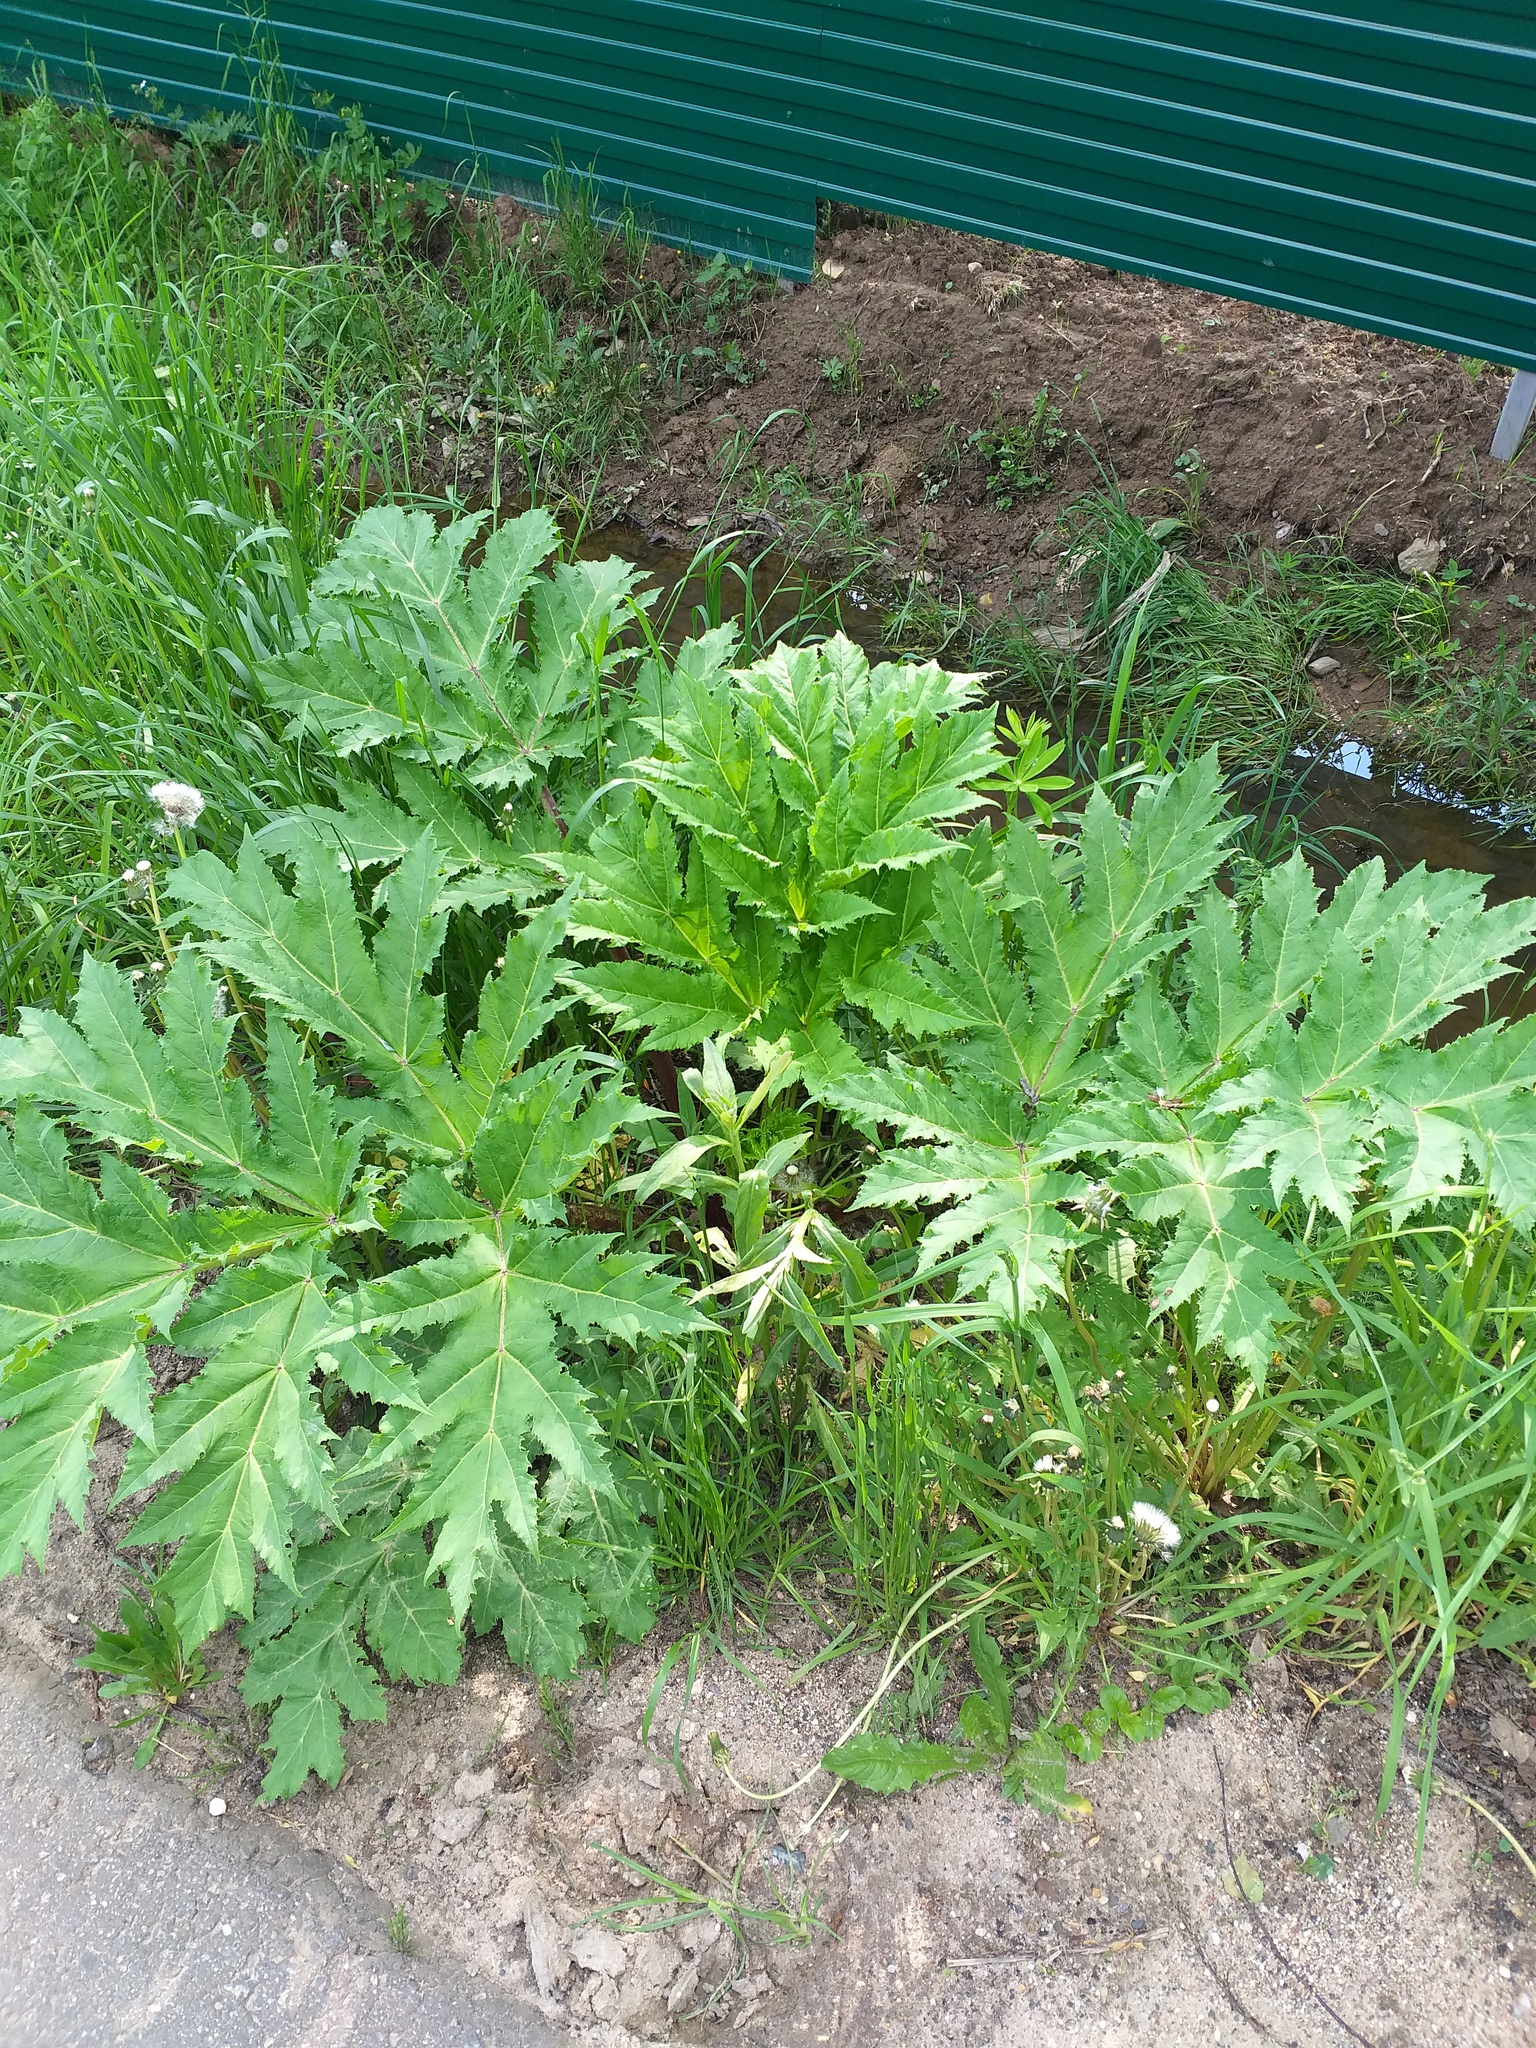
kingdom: Plantae
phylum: Tracheophyta
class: Magnoliopsida
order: Apiales
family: Apiaceae
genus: Heracleum
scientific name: Heracleum sosnowskyi
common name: Sosnowsky's hogweed
